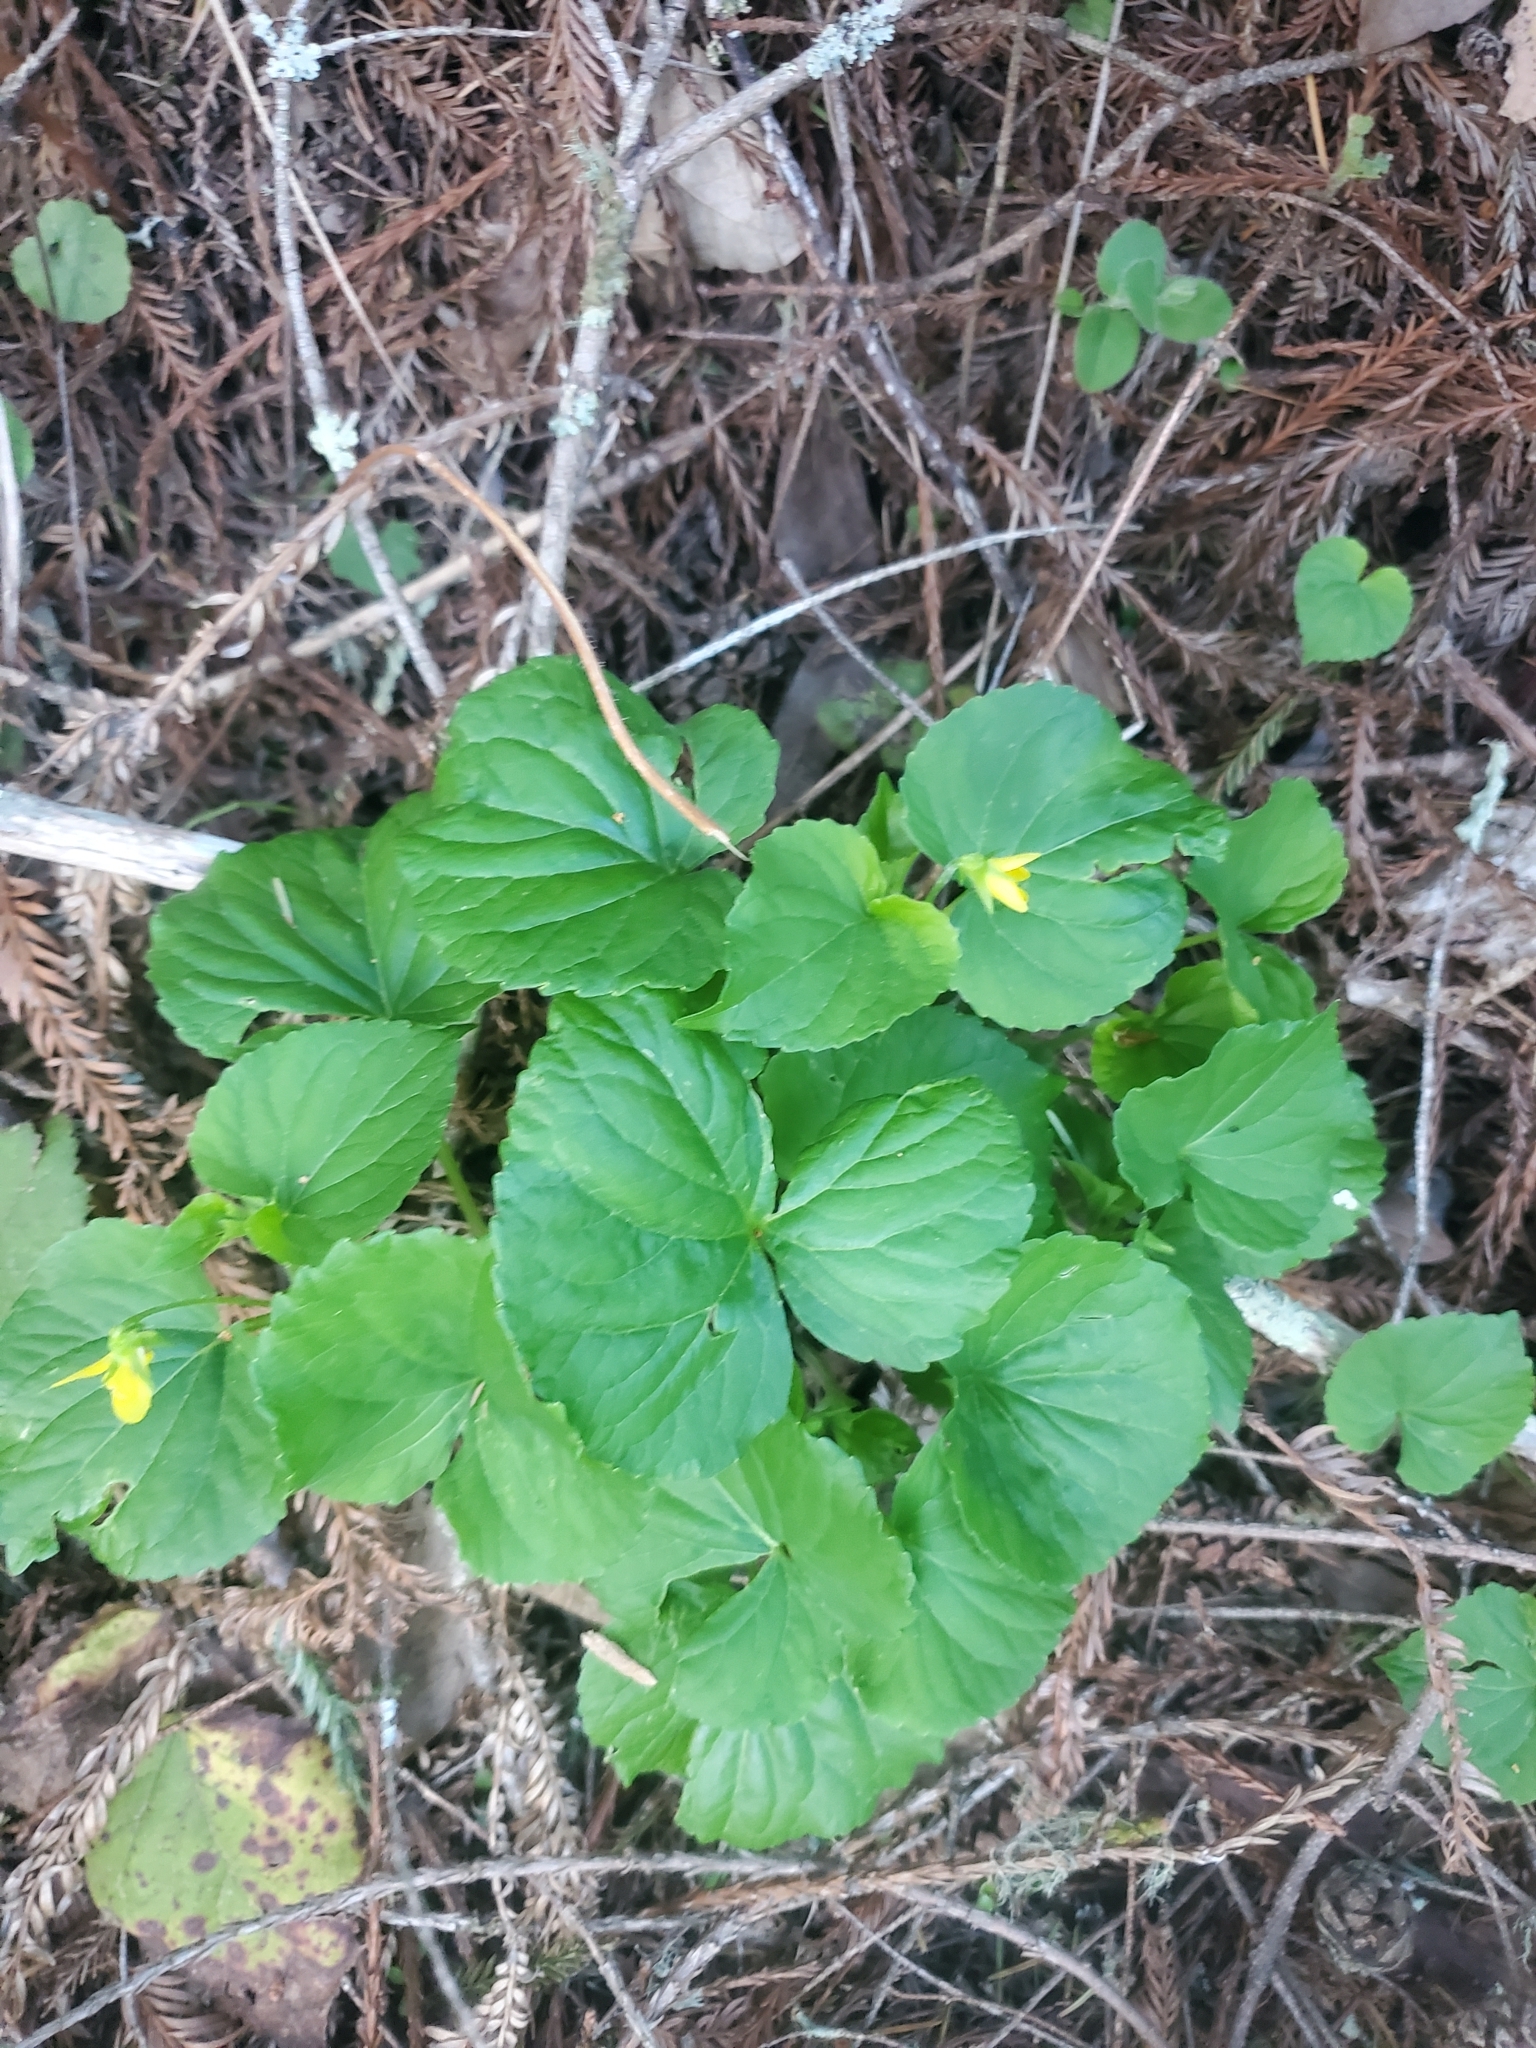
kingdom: Plantae
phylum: Tracheophyta
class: Magnoliopsida
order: Malpighiales
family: Violaceae
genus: Viola
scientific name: Viola glabella
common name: Stream violet
